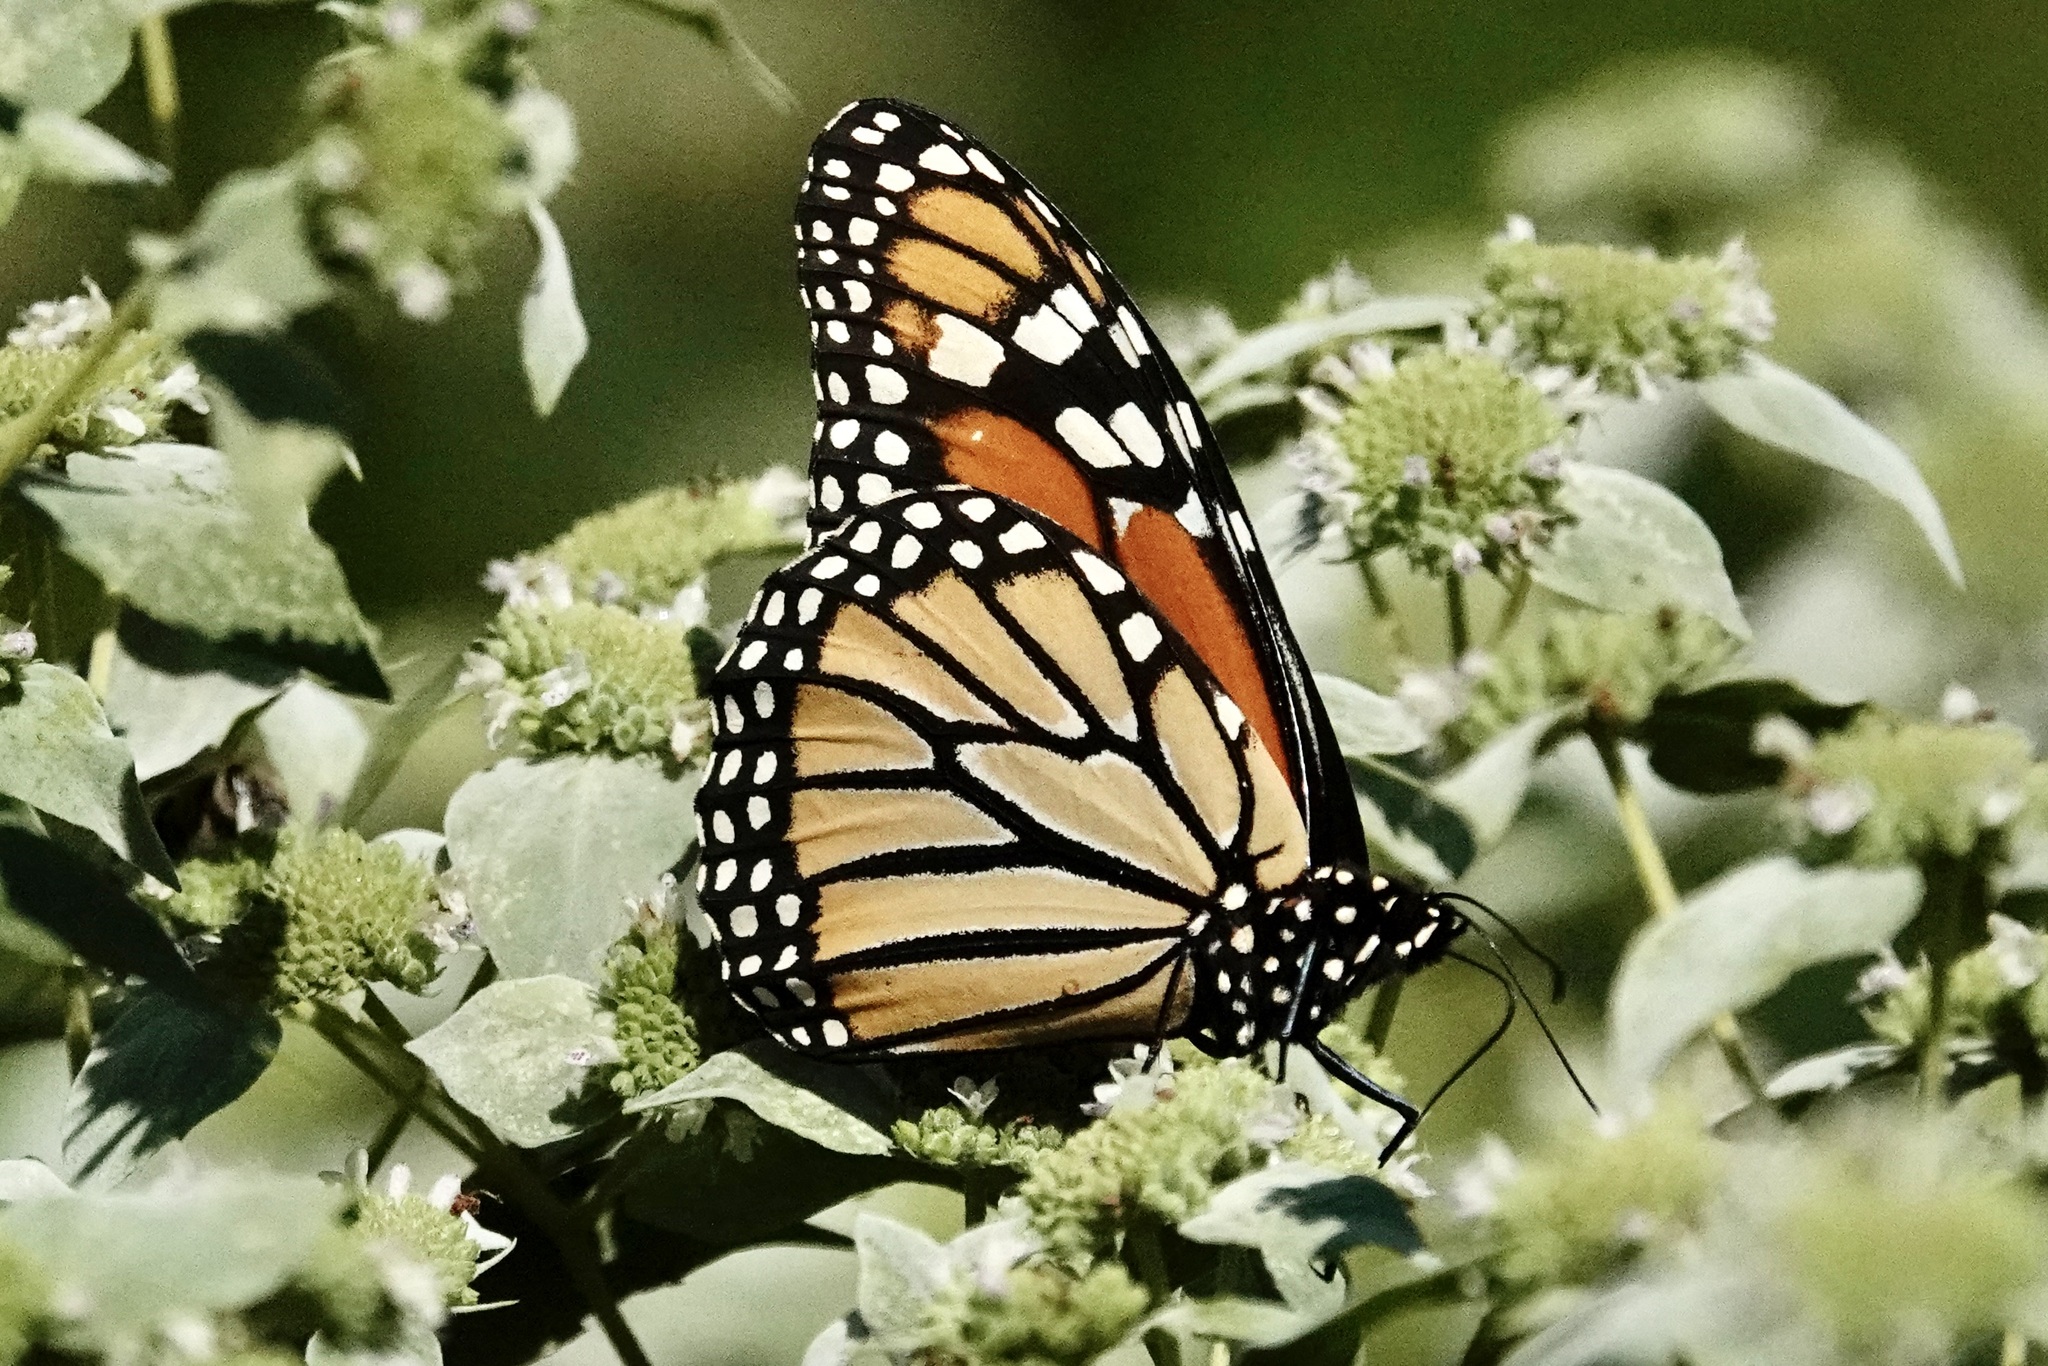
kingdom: Animalia
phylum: Arthropoda
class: Insecta
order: Lepidoptera
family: Nymphalidae
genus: Danaus
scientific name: Danaus plexippus
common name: Monarch
